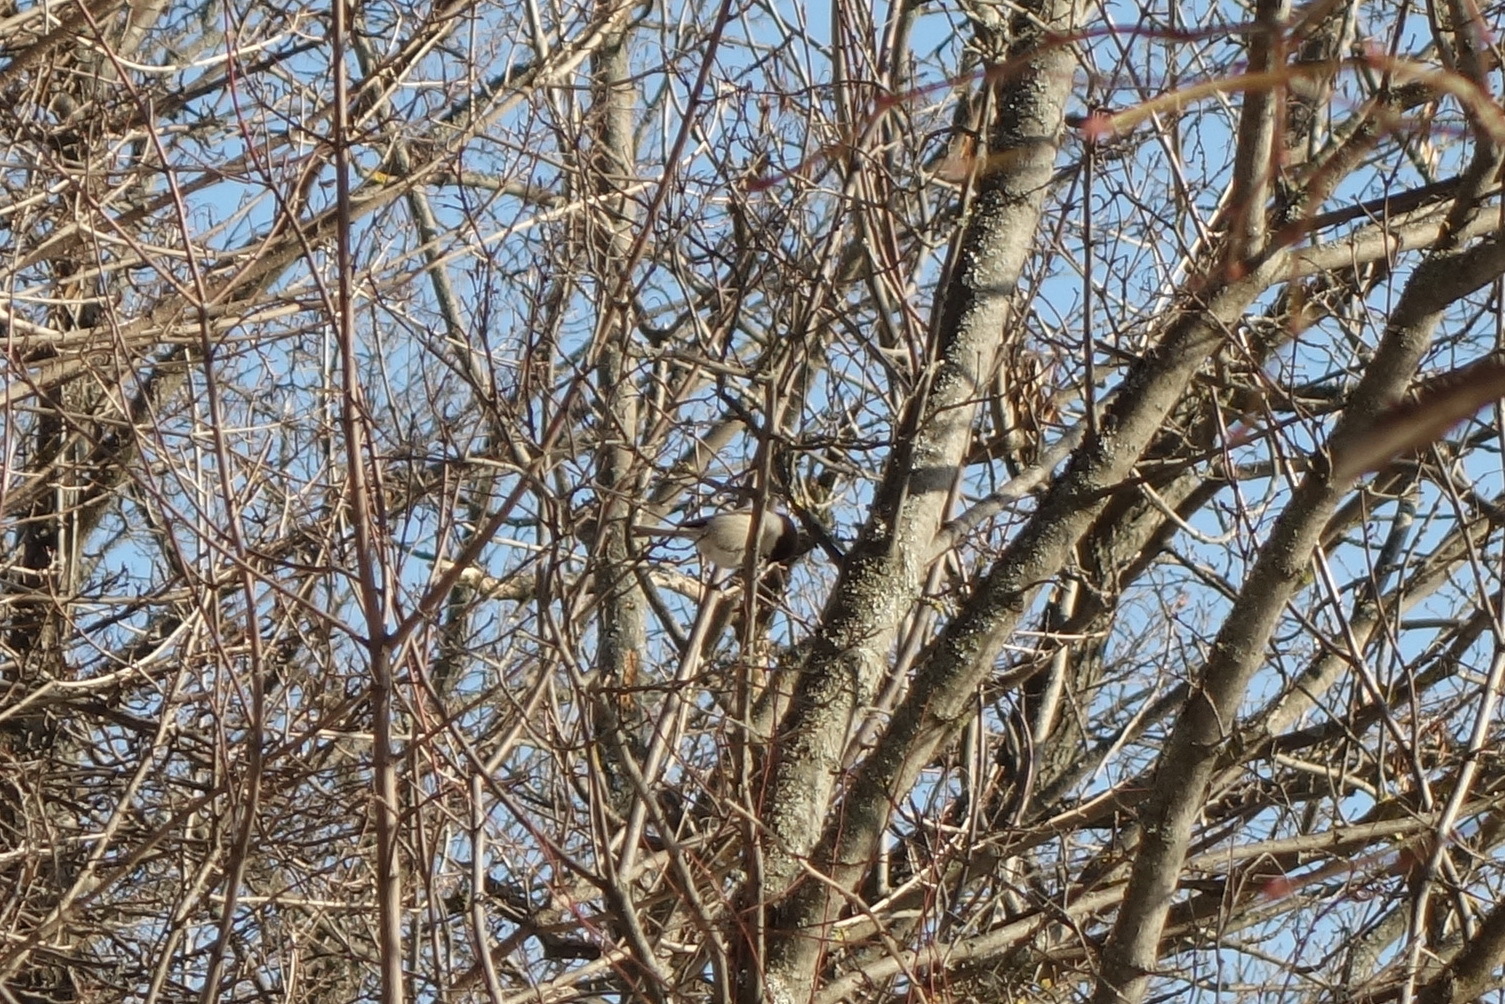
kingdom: Animalia
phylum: Chordata
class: Aves
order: Passeriformes
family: Paridae
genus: Poecile
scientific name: Poecile montanus
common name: Willow tit
